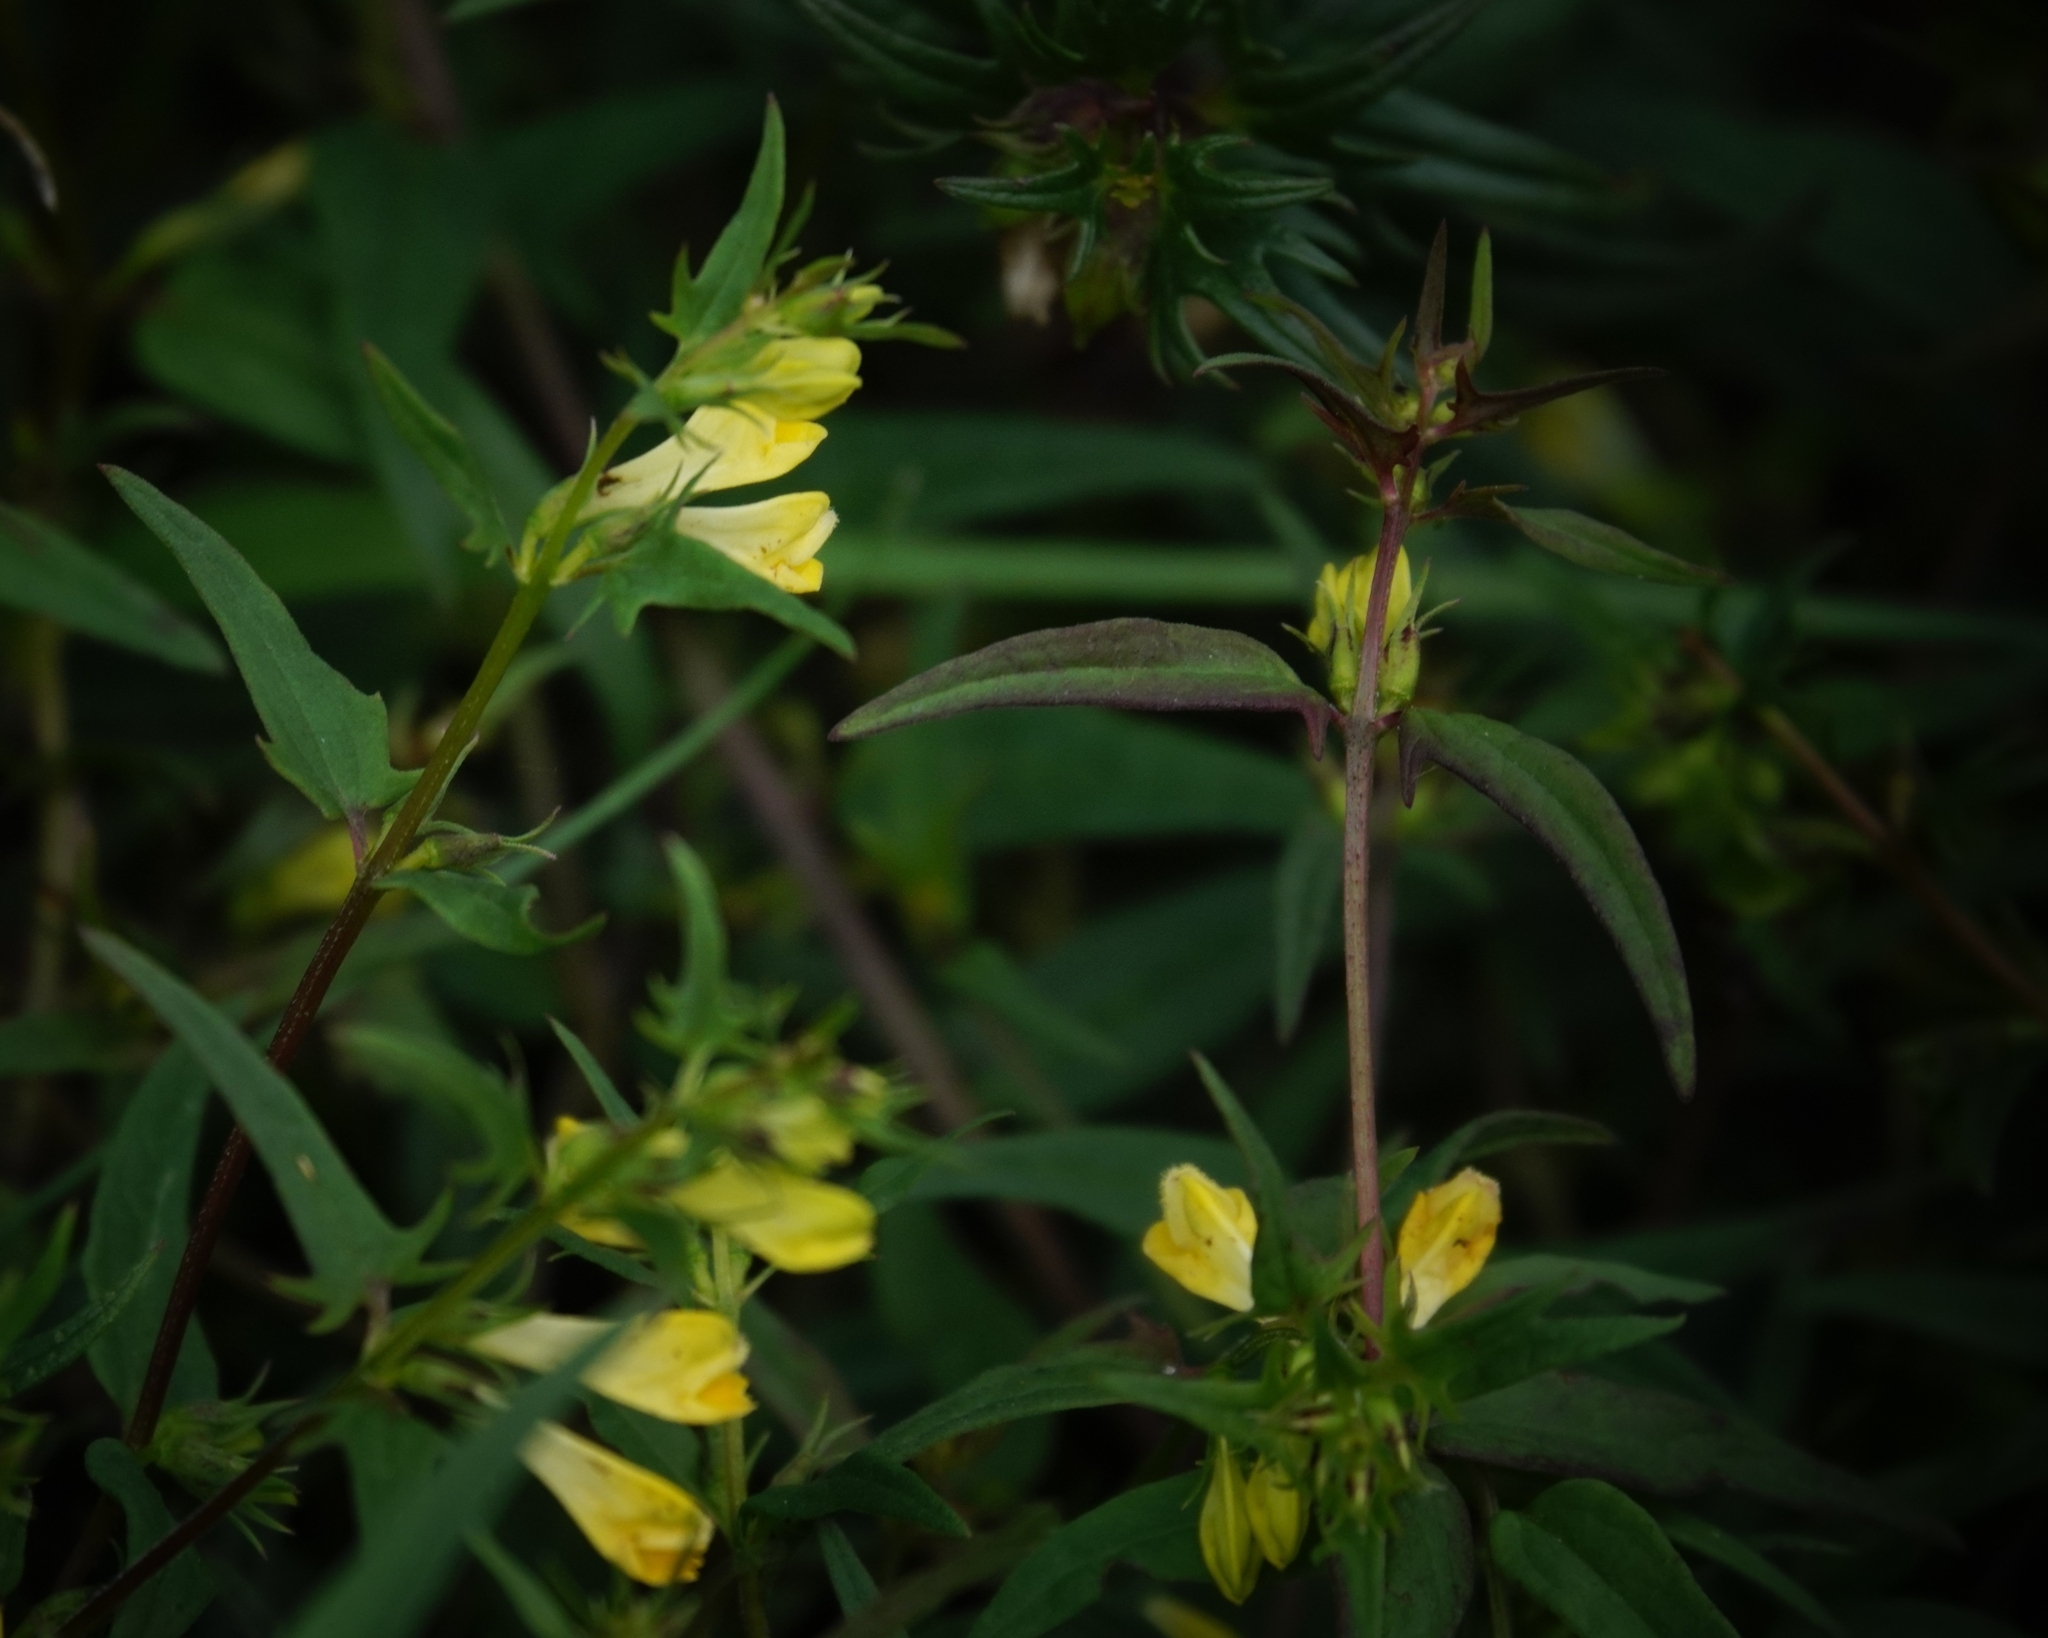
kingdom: Plantae
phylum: Tracheophyta
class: Magnoliopsida
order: Lamiales
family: Orobanchaceae
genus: Melampyrum
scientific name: Melampyrum pratense
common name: Common cow-wheat
